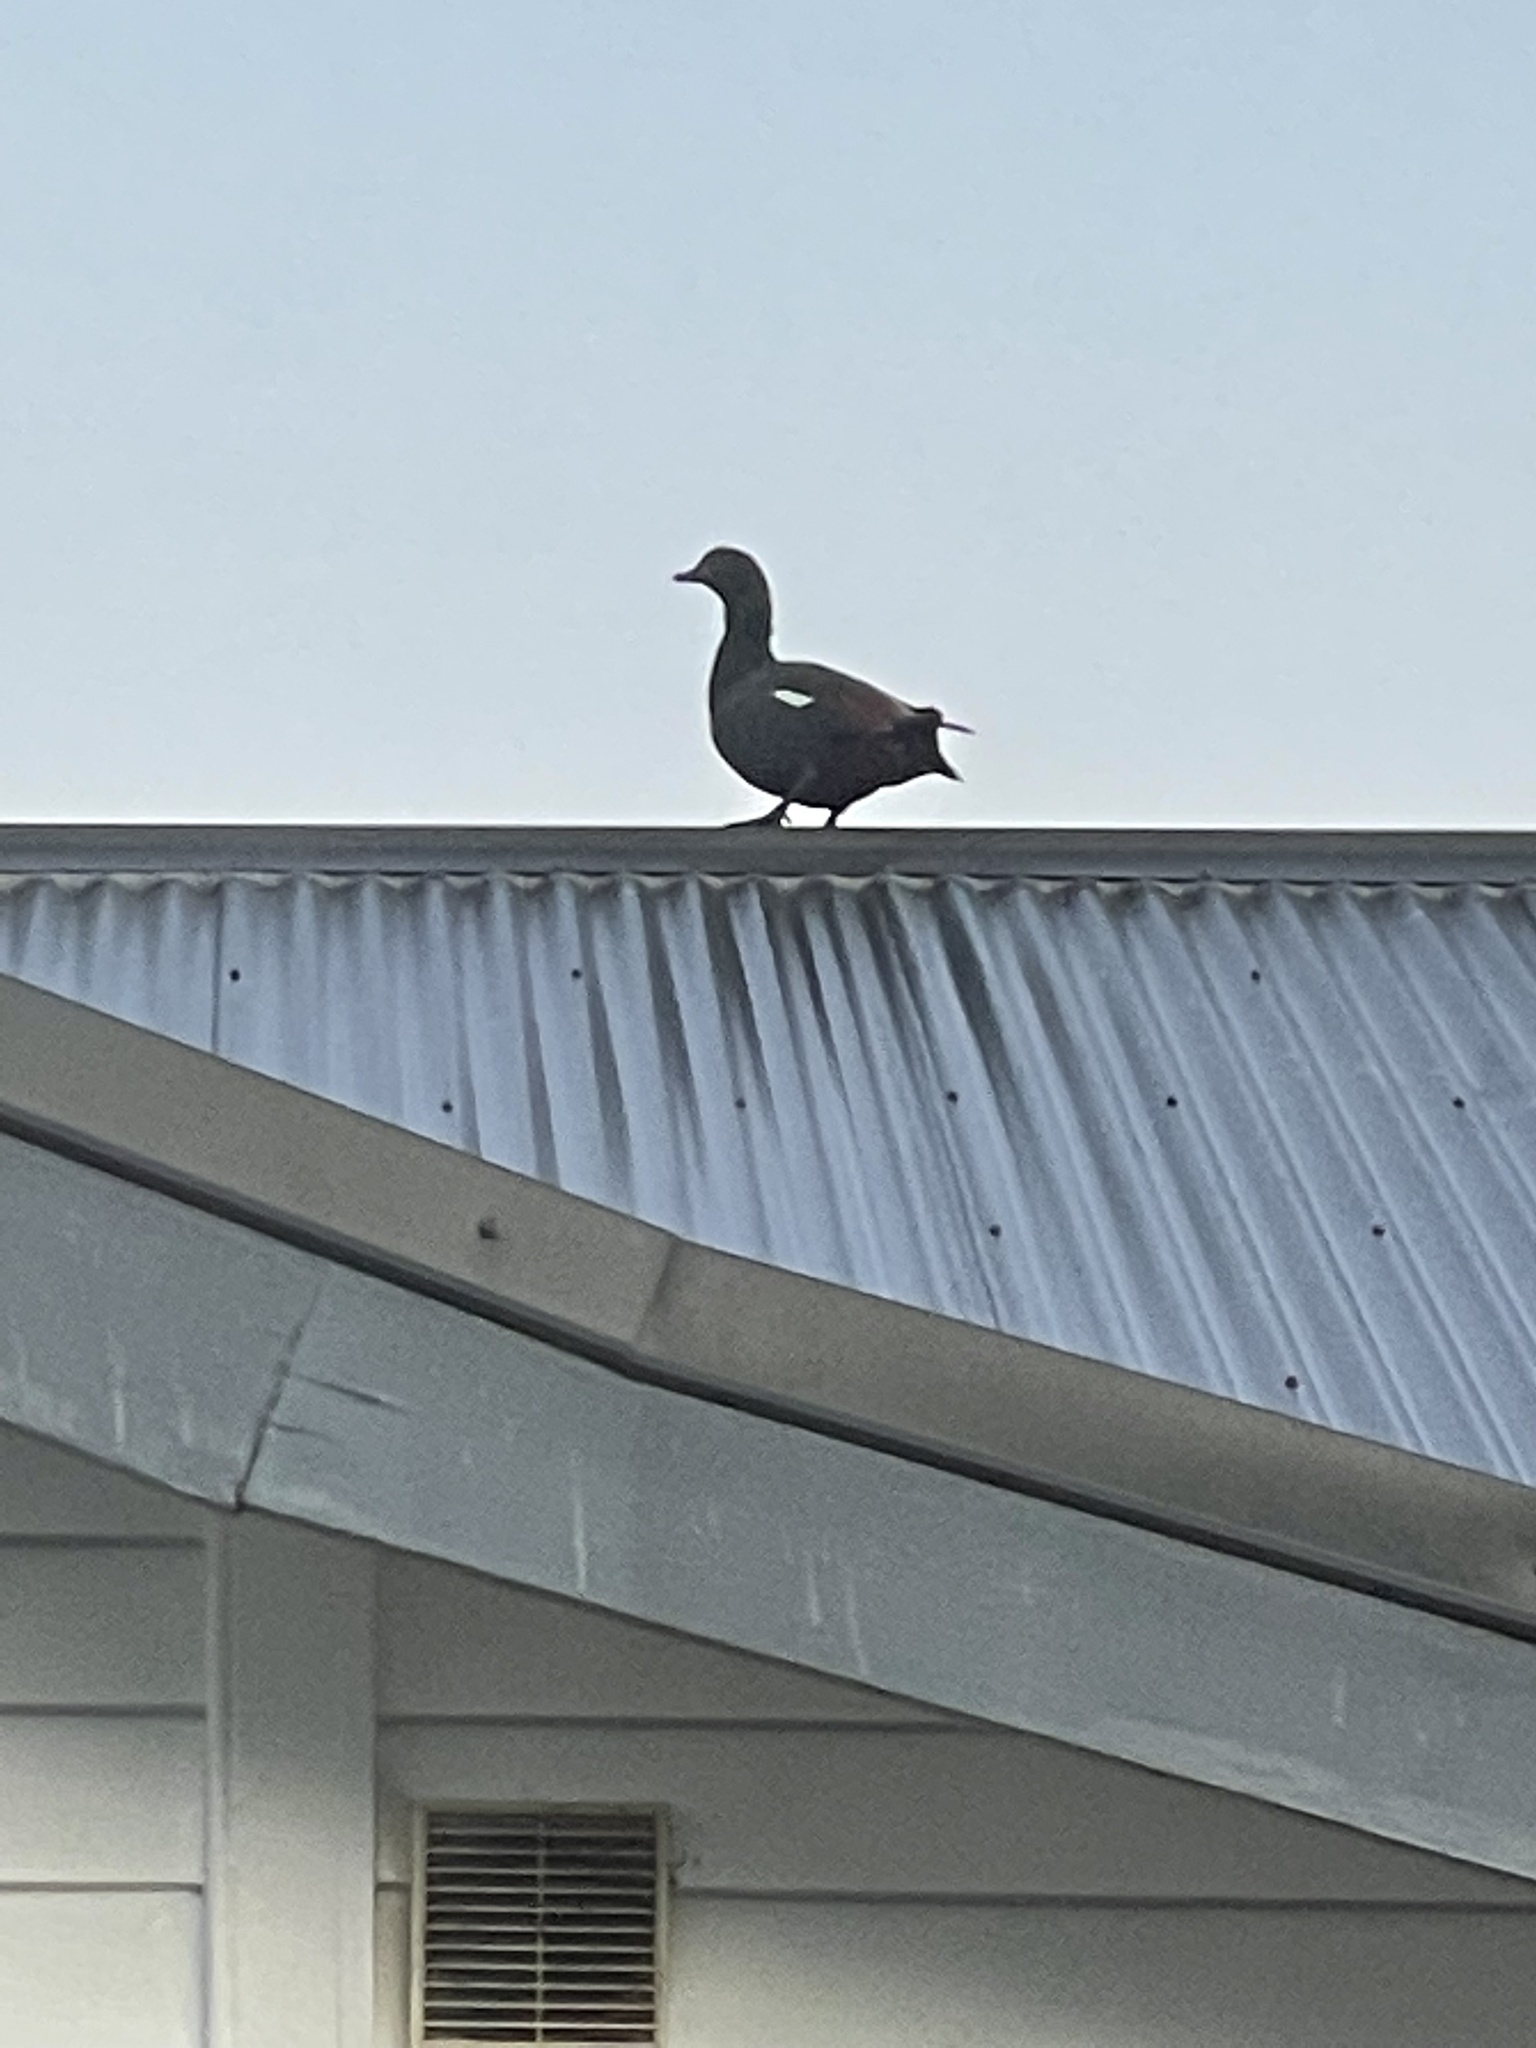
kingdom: Animalia
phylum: Chordata
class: Aves
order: Anseriformes
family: Anatidae
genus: Tadorna
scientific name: Tadorna variegata
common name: Paradise shelduck
